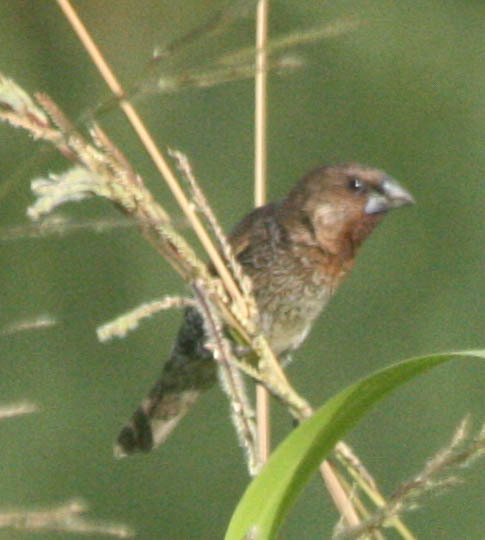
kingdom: Animalia
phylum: Chordata
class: Aves
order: Passeriformes
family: Estrildidae
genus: Lonchura
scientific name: Lonchura punctulata
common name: Scaly-breasted munia
